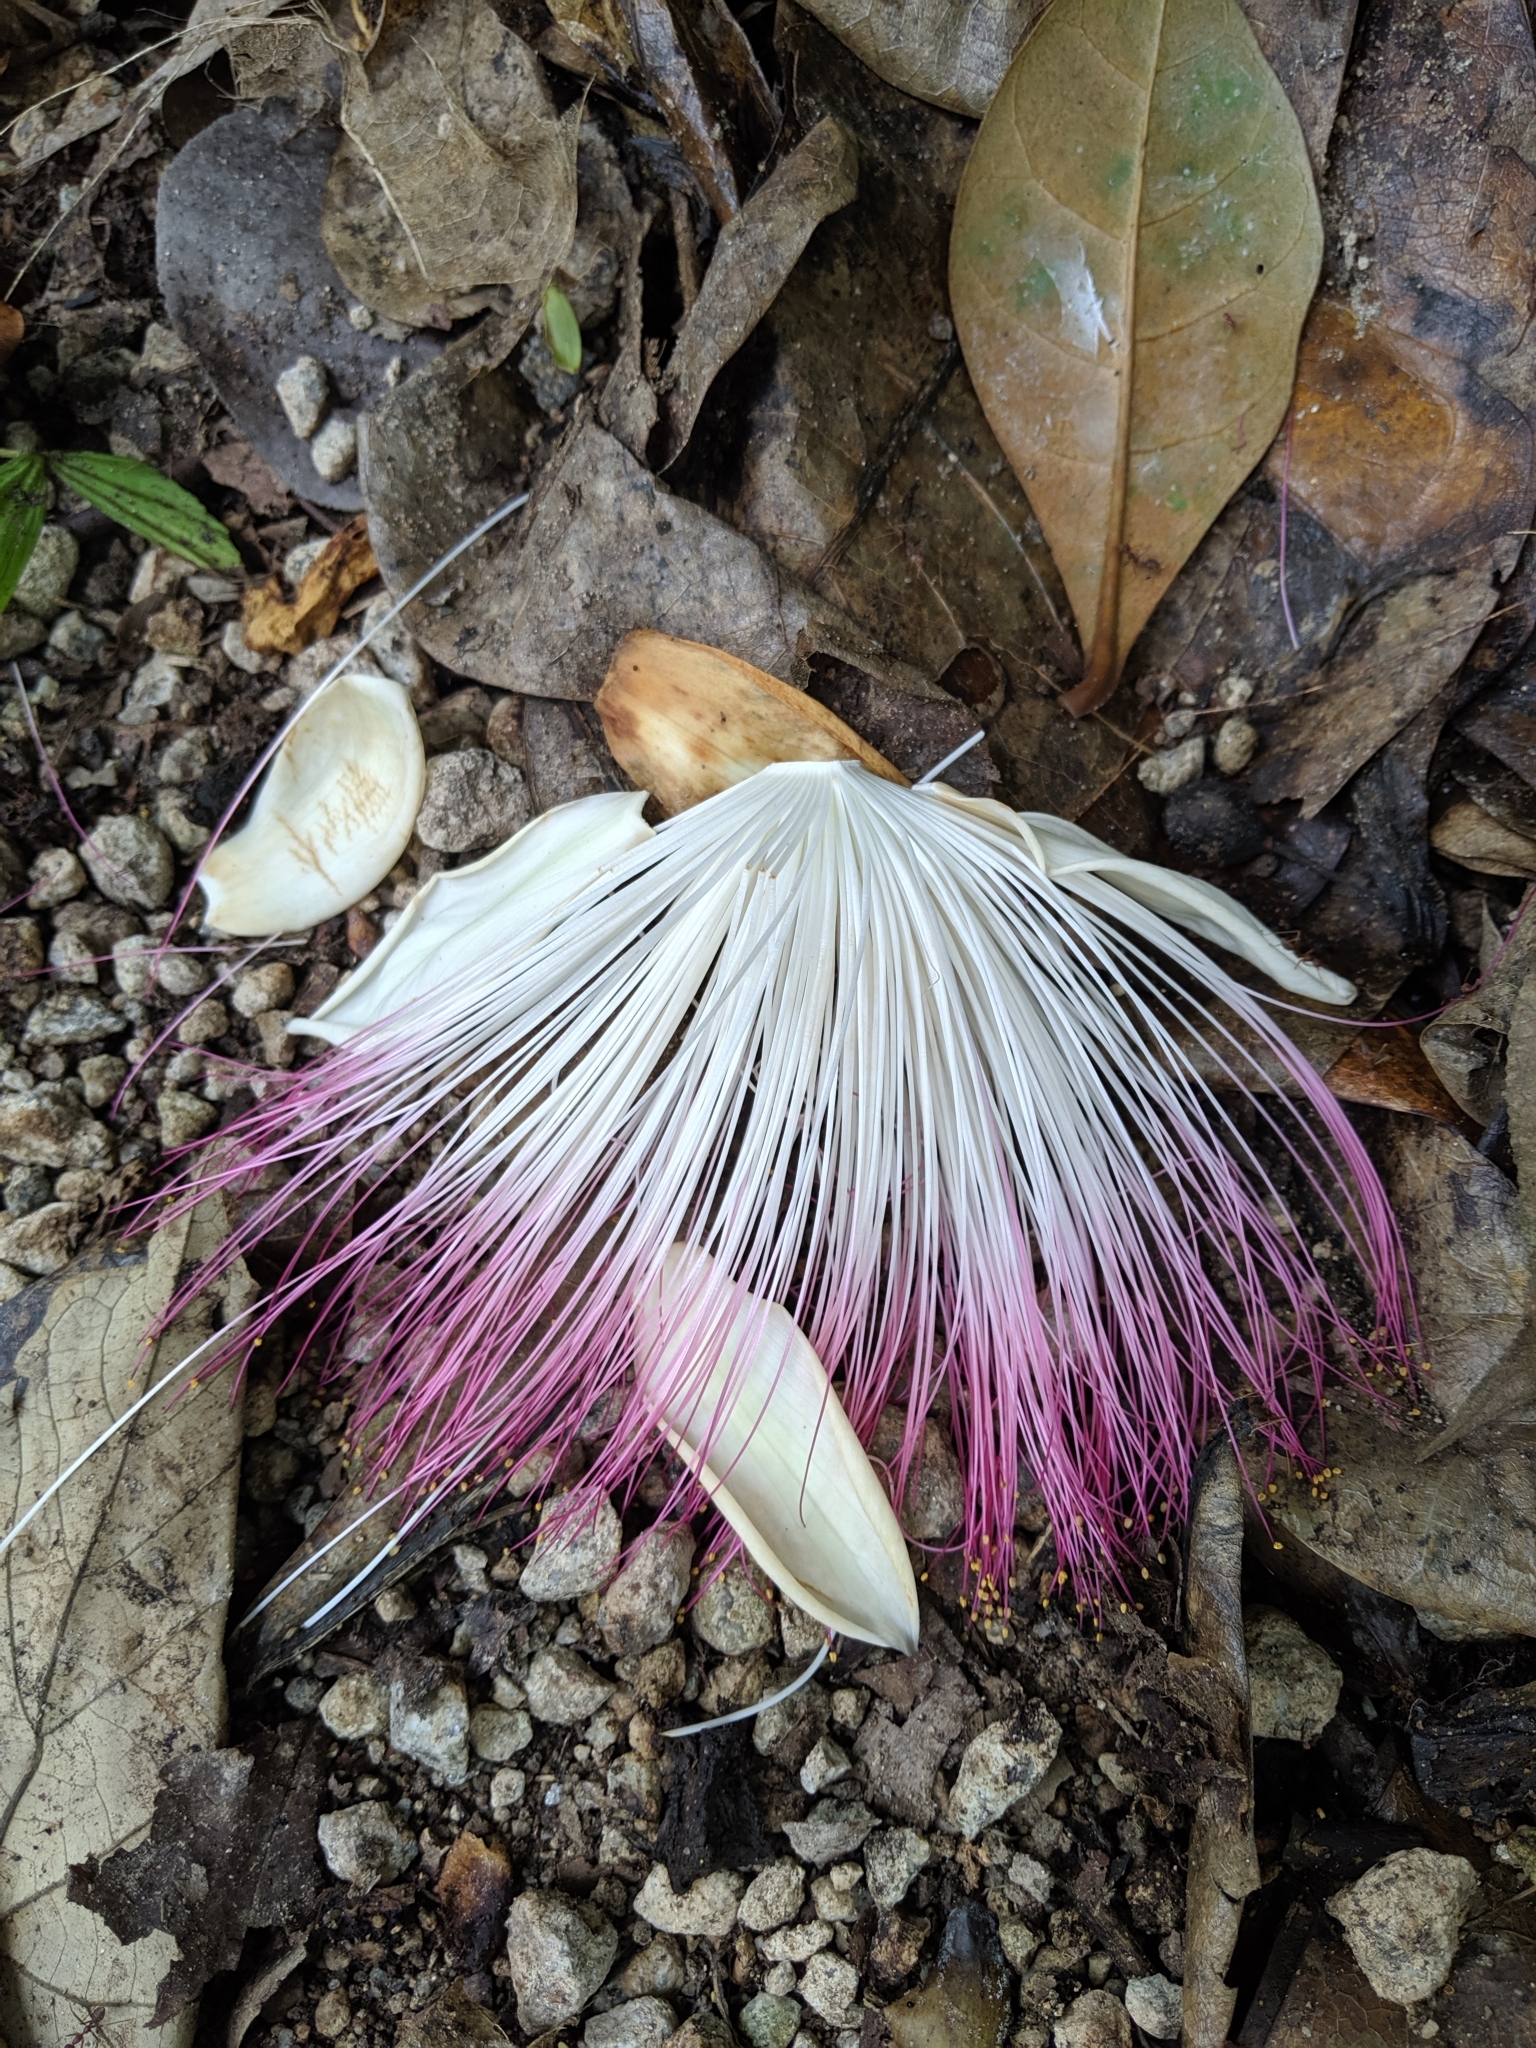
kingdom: Plantae
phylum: Tracheophyta
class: Magnoliopsida
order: Ericales
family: Lecythidaceae
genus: Barringtonia
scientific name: Barringtonia asiatica
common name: Mango-pine
